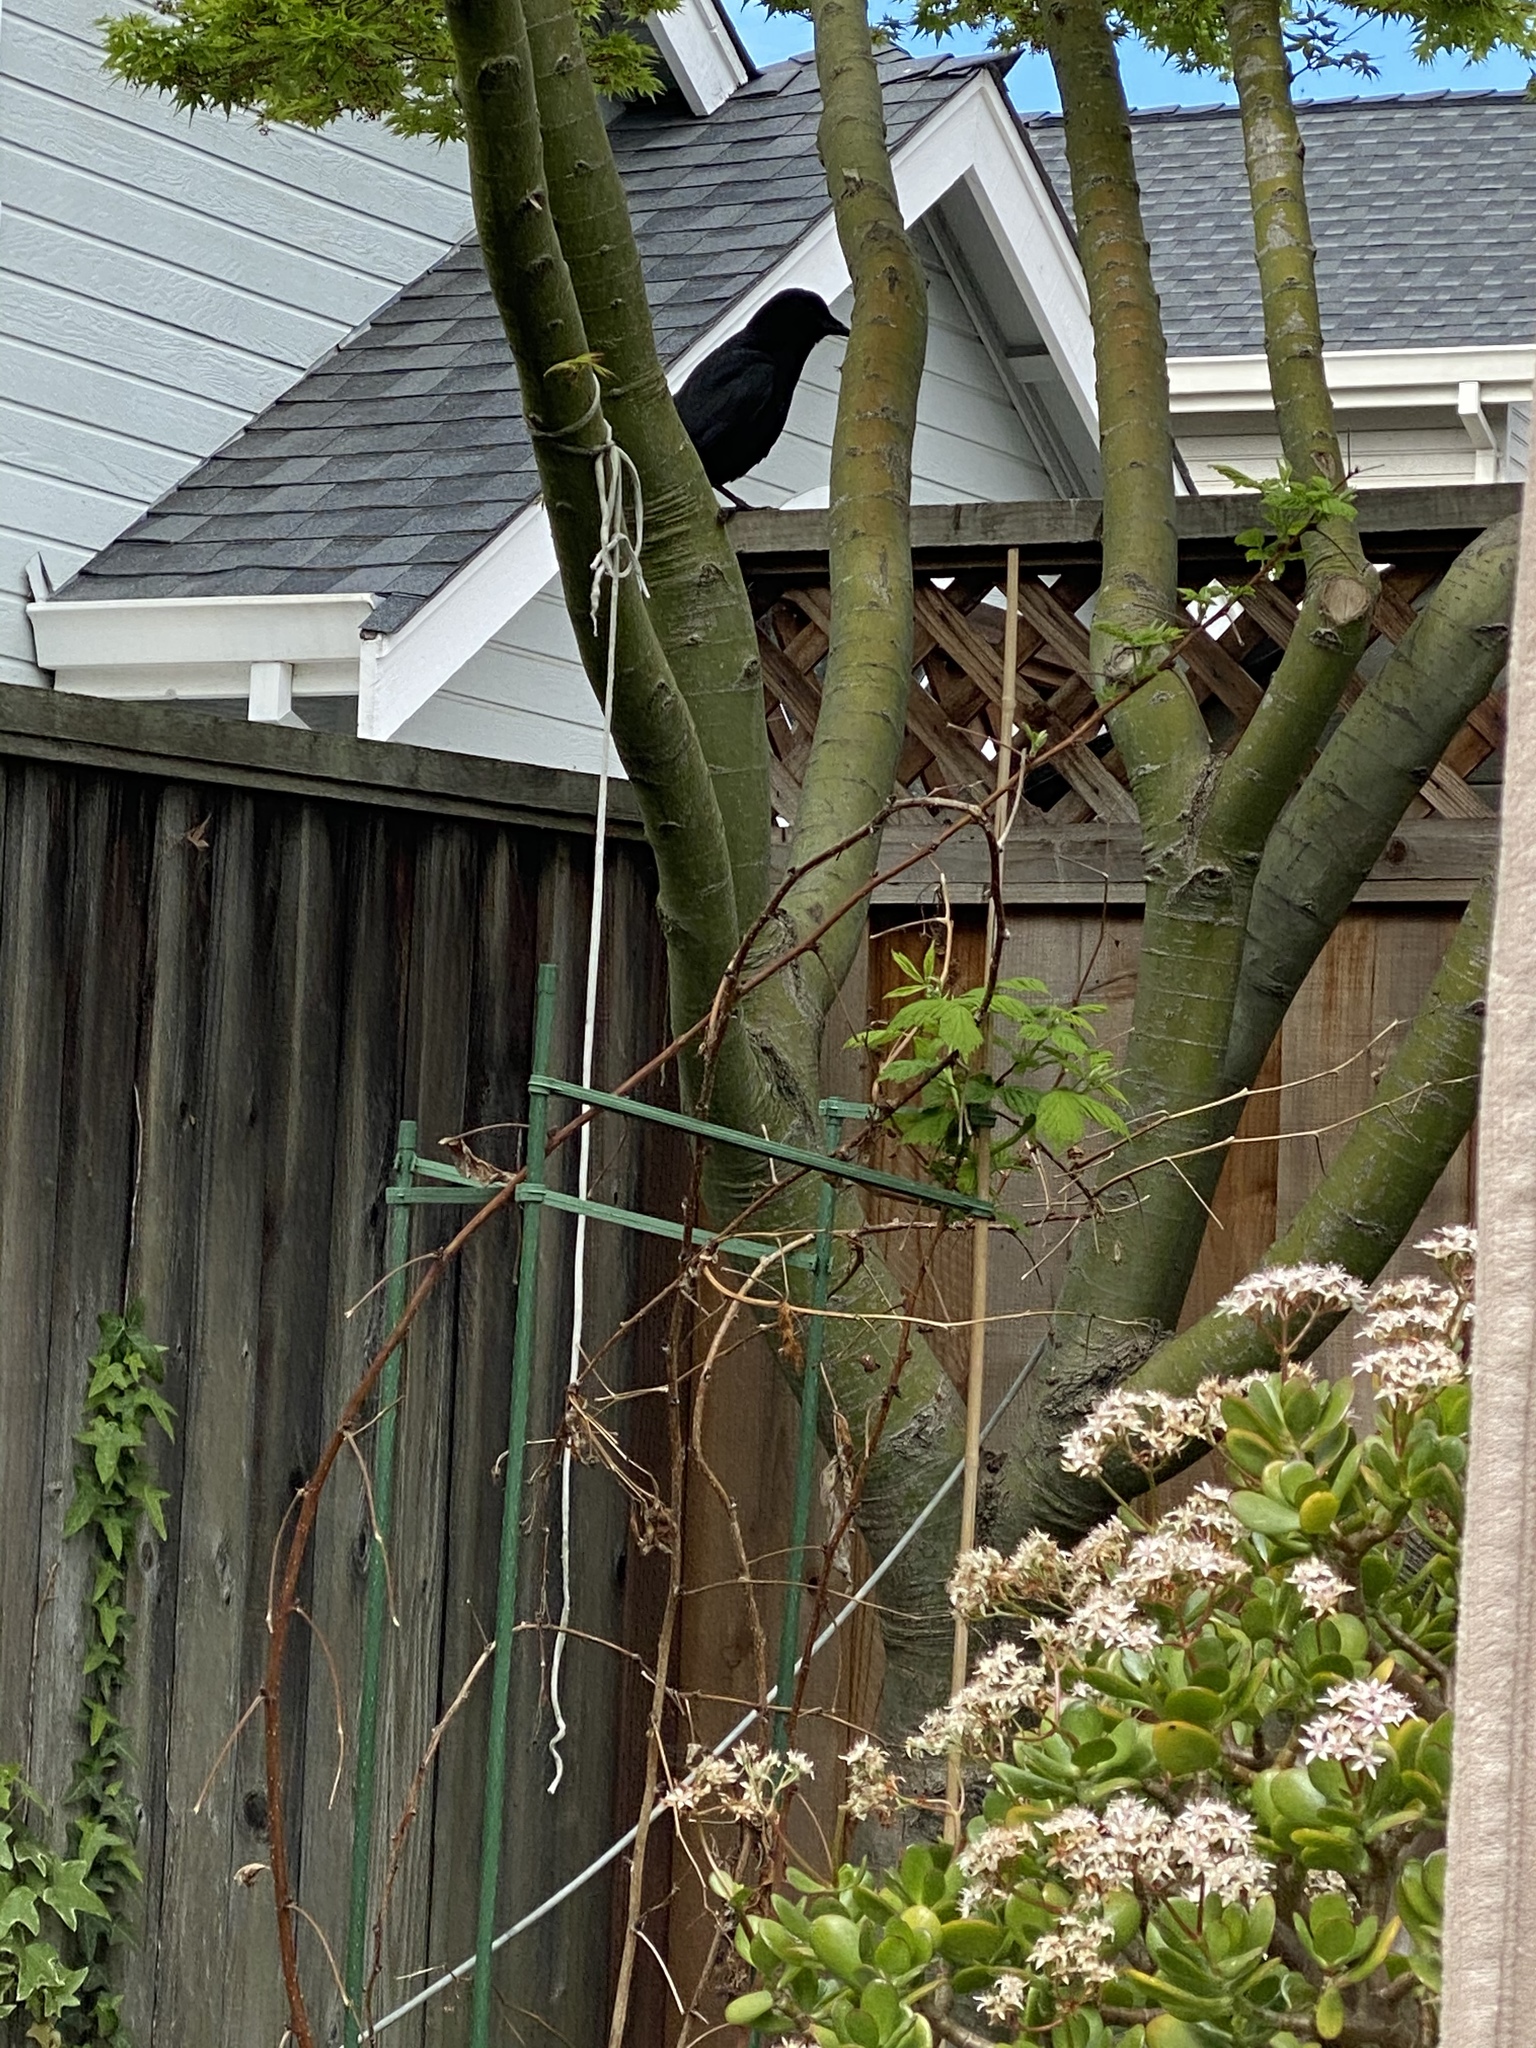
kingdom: Animalia
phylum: Chordata
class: Aves
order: Passeriformes
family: Corvidae
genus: Corvus
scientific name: Corvus brachyrhynchos
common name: American crow
